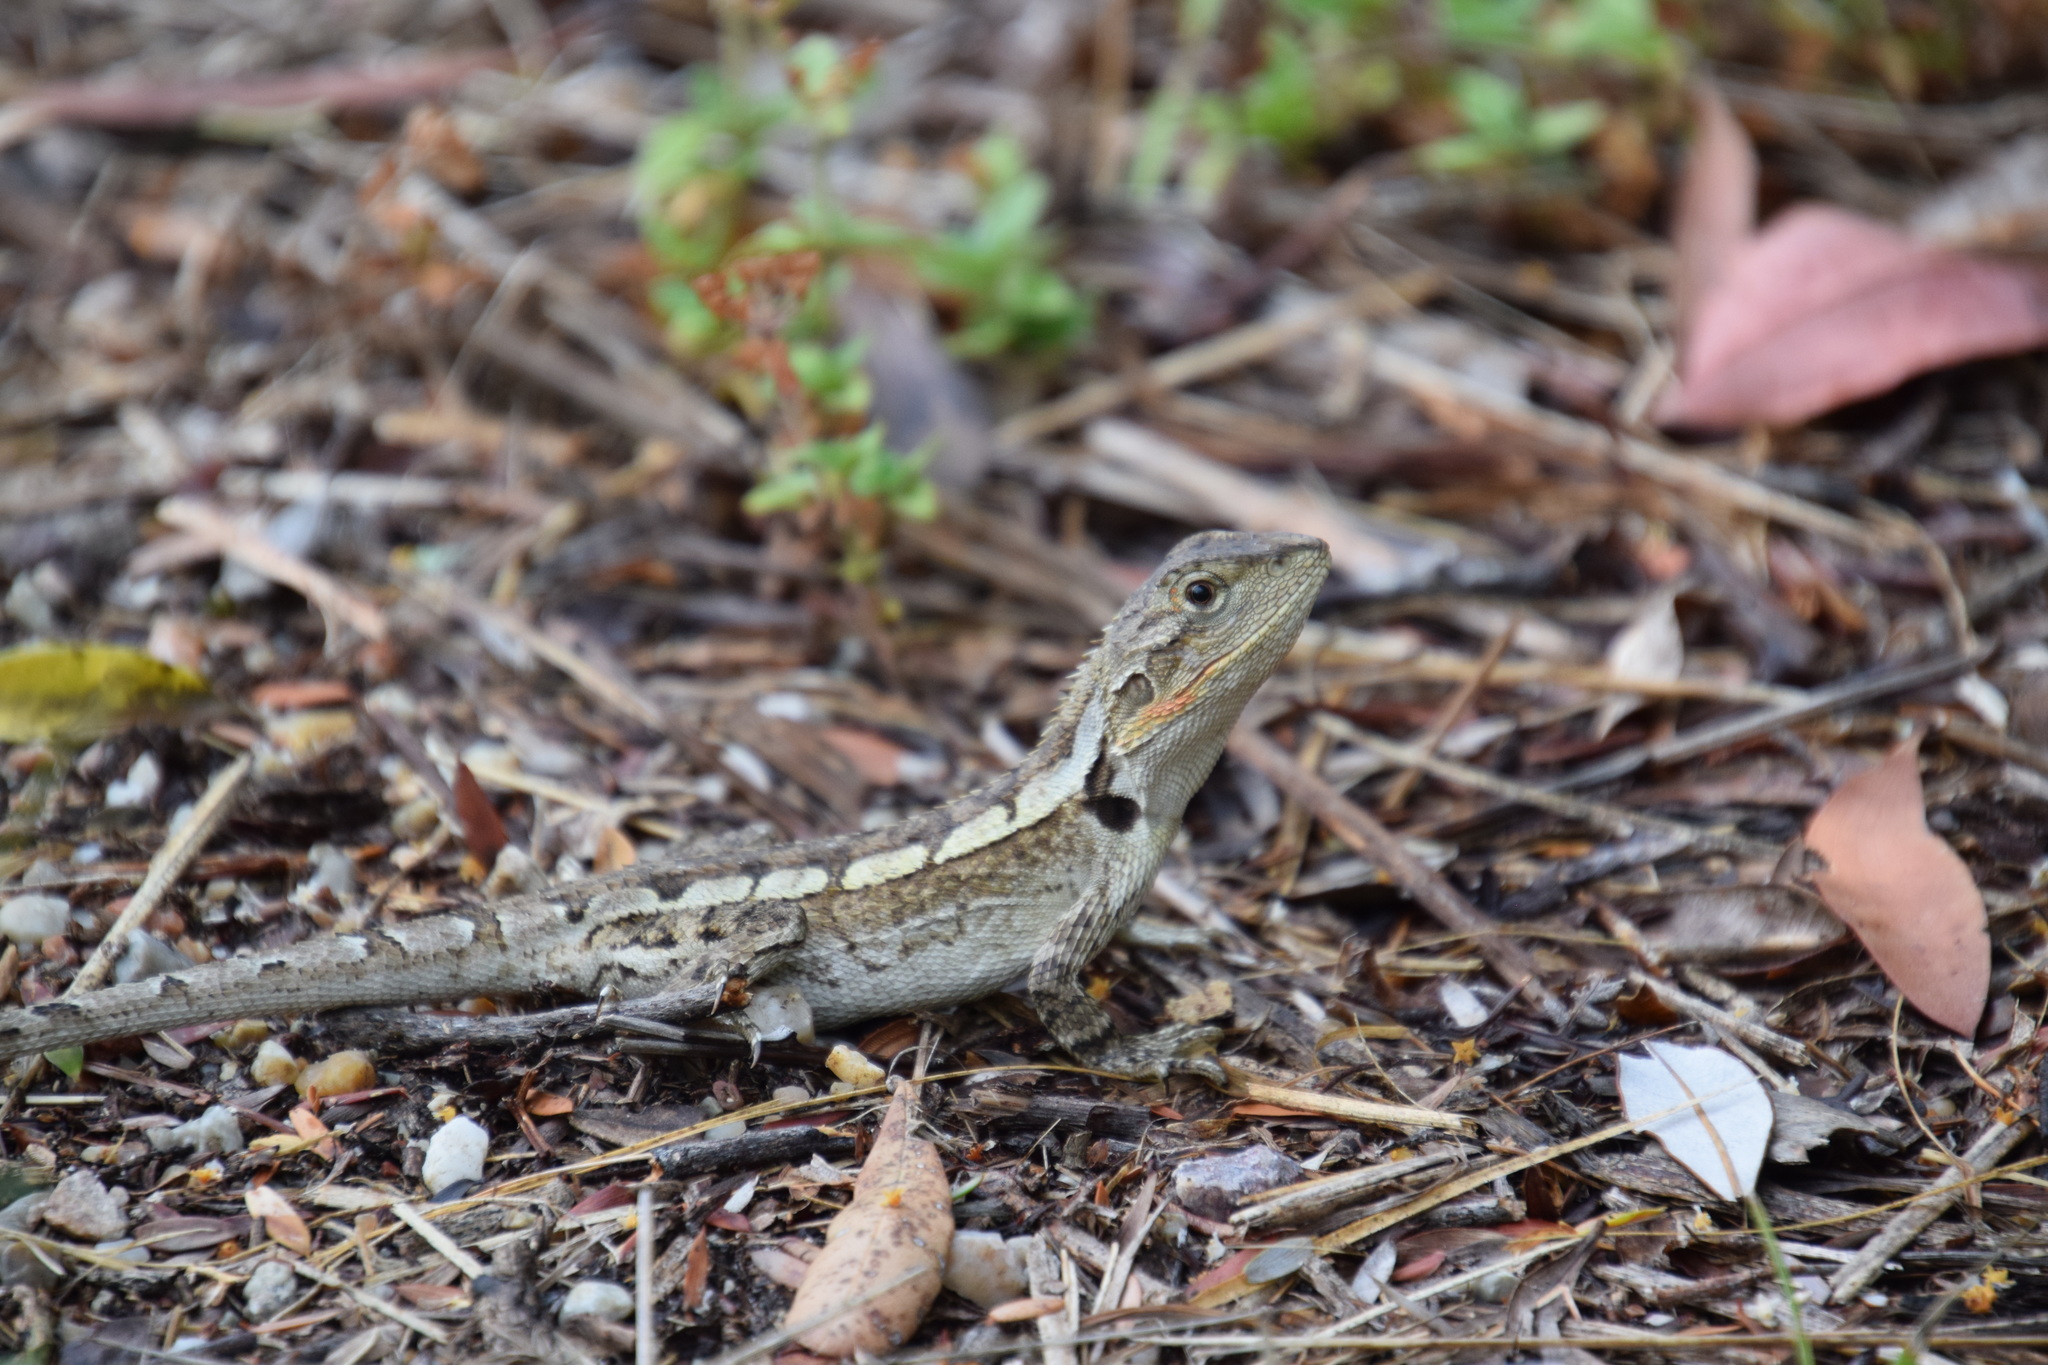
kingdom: Animalia
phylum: Chordata
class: Squamata
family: Agamidae
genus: Amphibolurus
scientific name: Amphibolurus muricatus
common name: Jacky lizard
